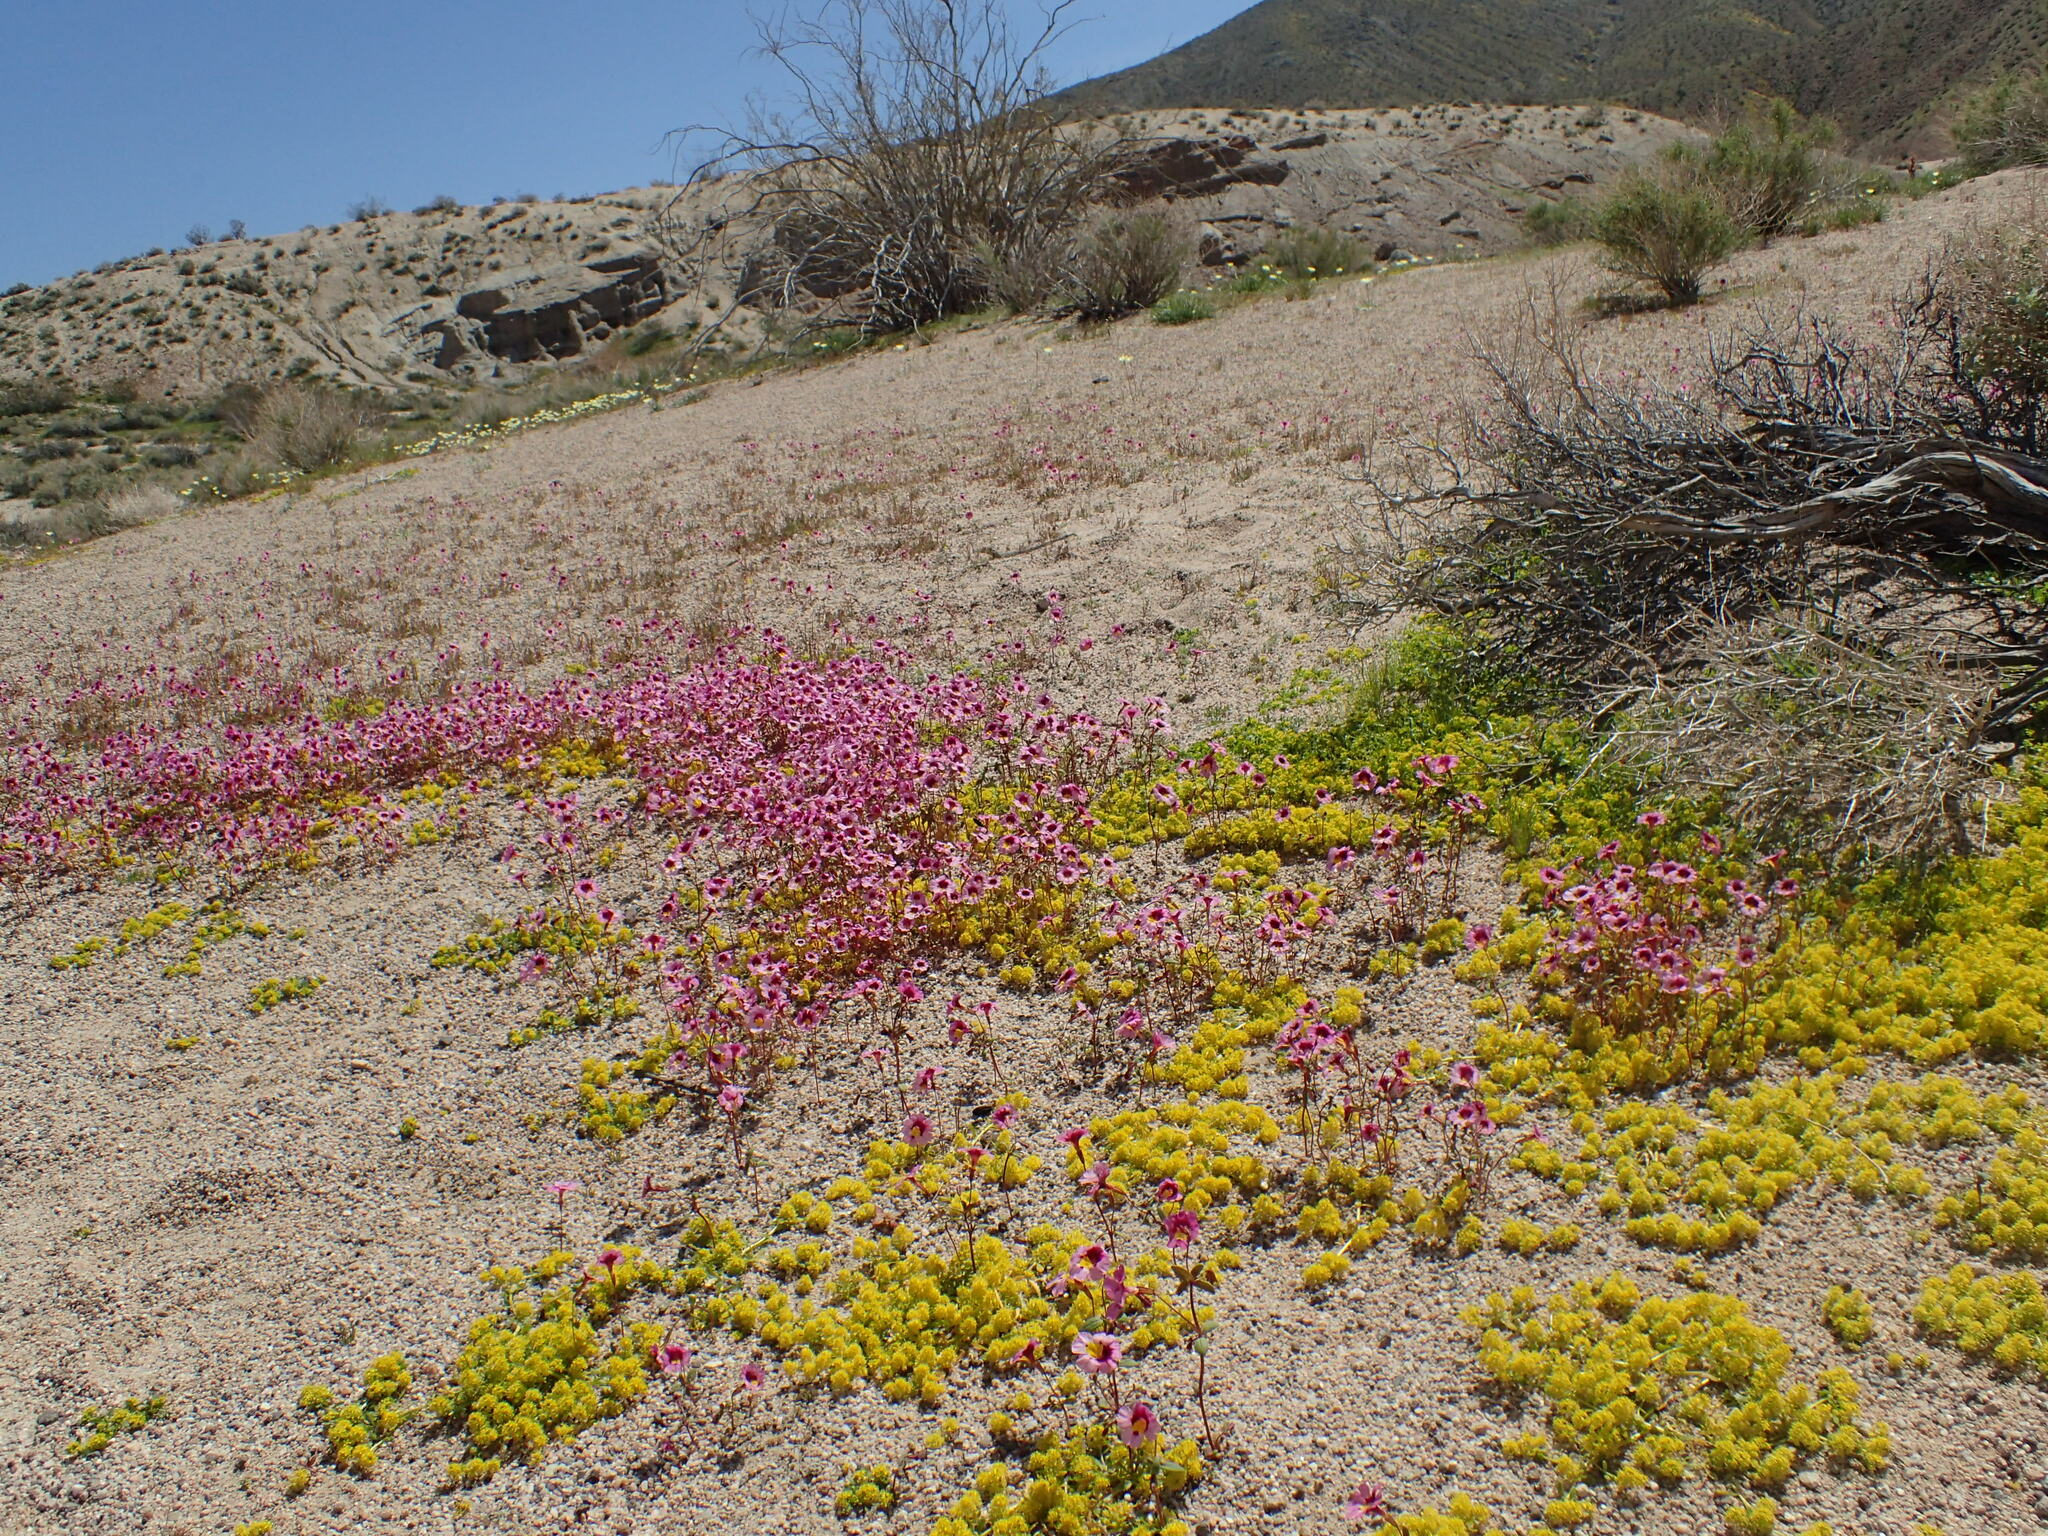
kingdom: Plantae
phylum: Tracheophyta
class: Magnoliopsida
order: Lamiales
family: Phrymaceae
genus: Erythranthe
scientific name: Erythranthe rhodopetra
